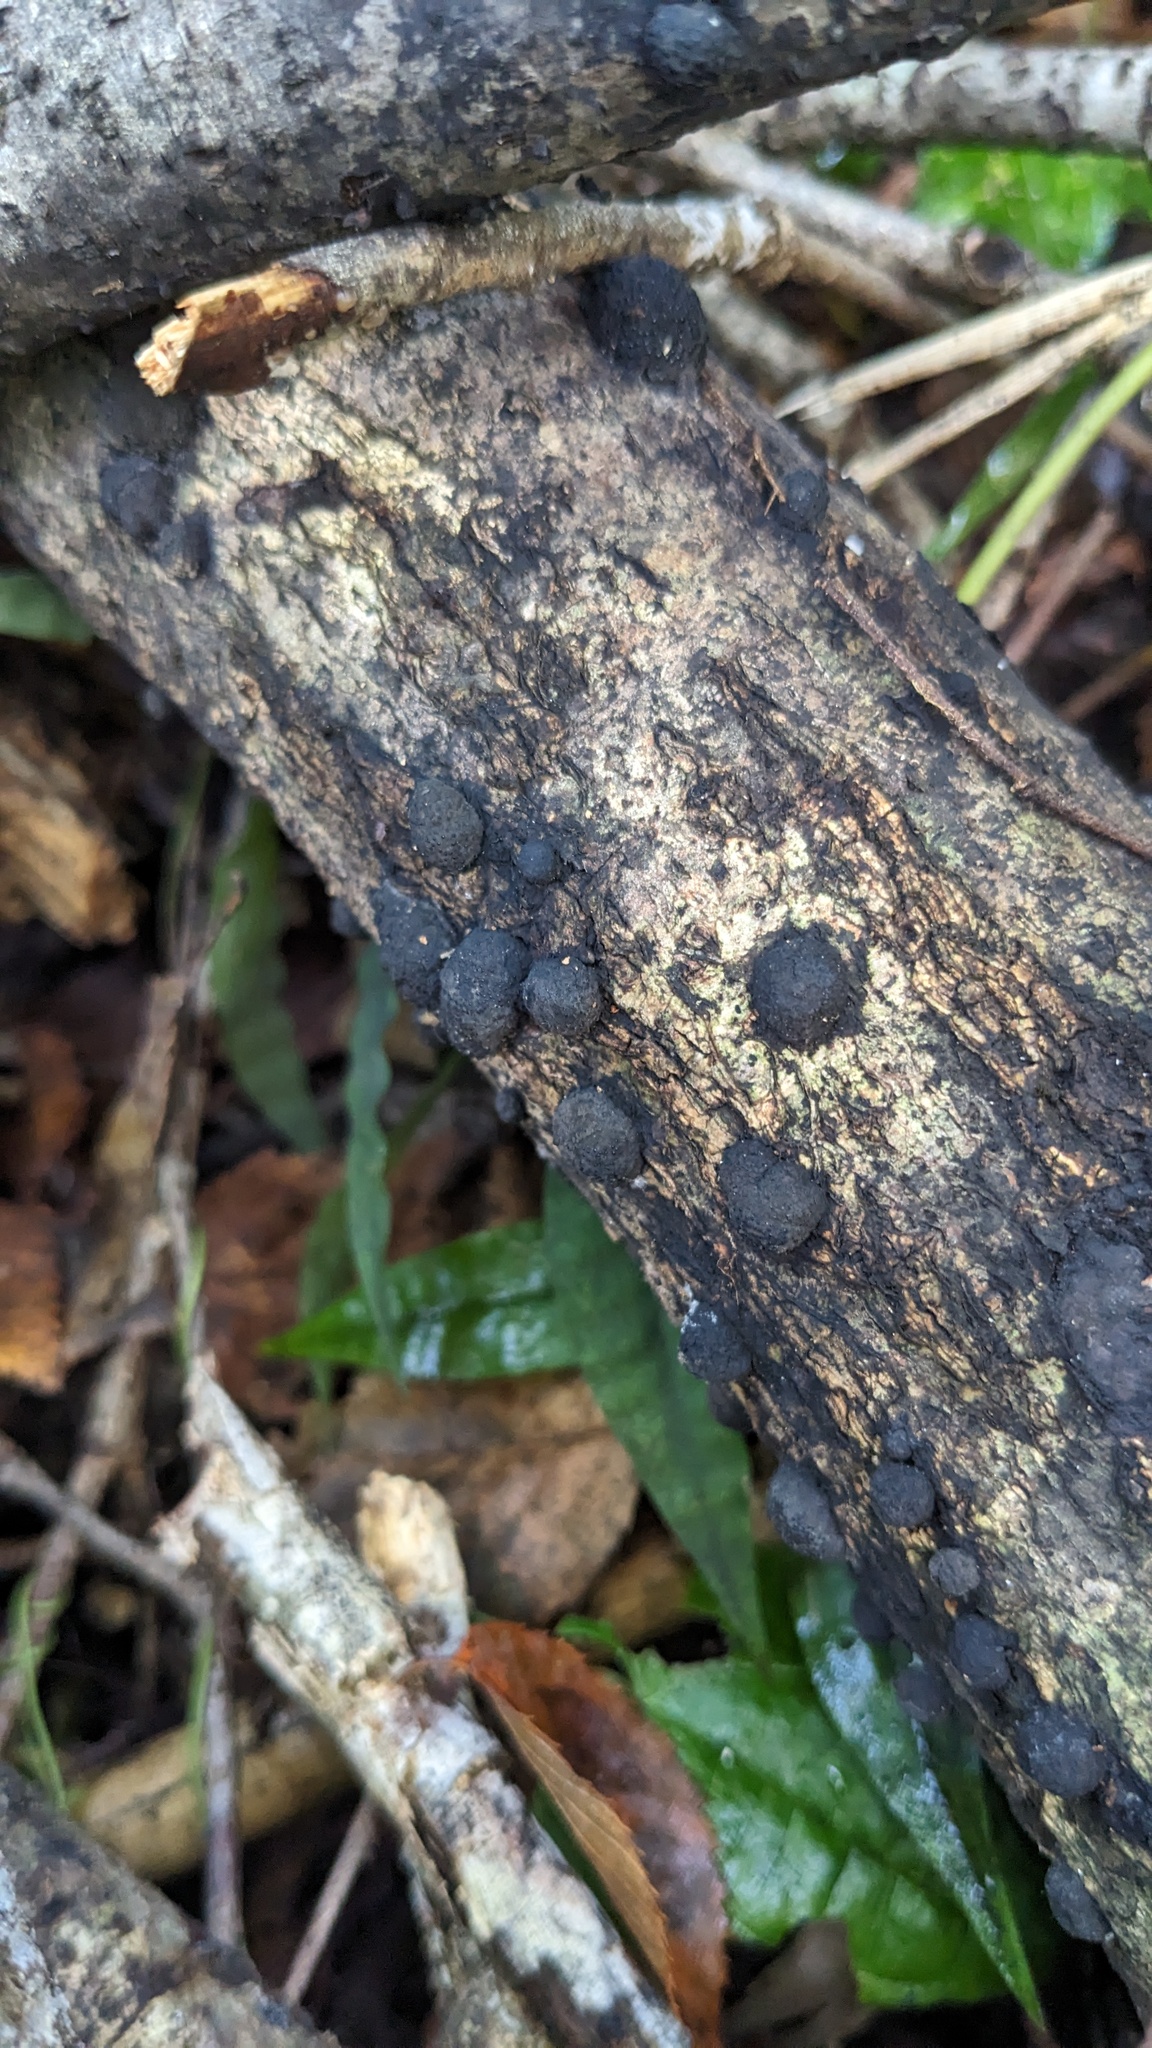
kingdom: Fungi
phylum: Ascomycota
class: Sordariomycetes
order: Xylariales
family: Hypoxylaceae
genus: Annulohypoxylon
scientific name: Annulohypoxylon truncatum
